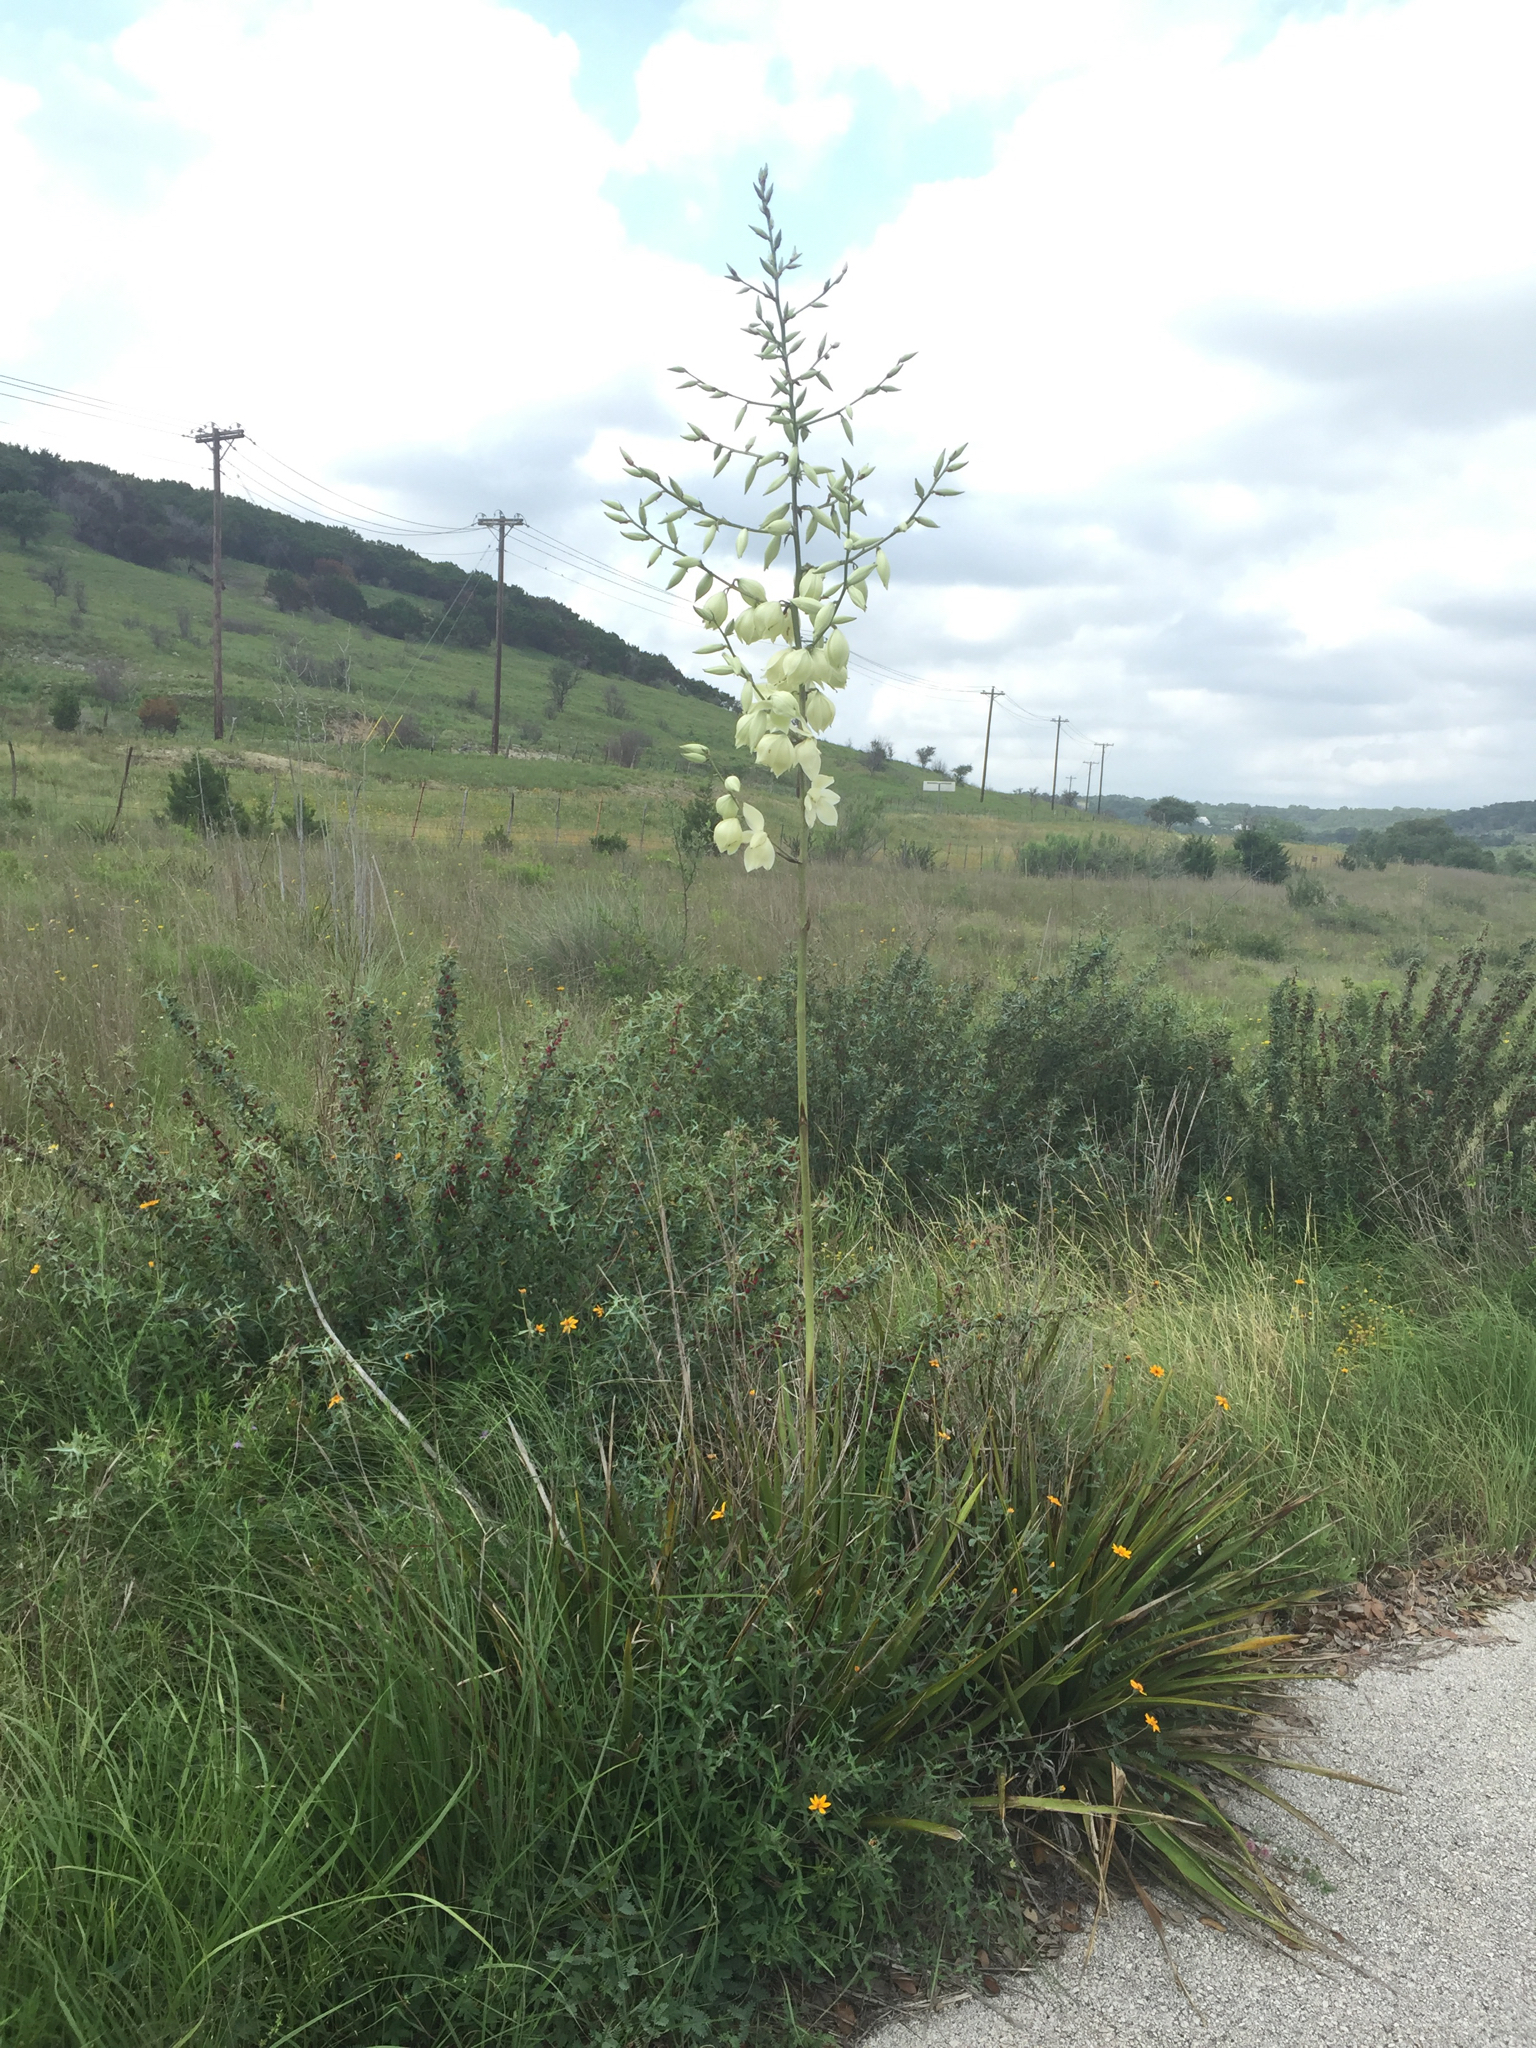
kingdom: Plantae
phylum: Tracheophyta
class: Liliopsida
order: Asparagales
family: Asparagaceae
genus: Yucca
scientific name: Yucca rupicola
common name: Twisted-leaf spanish-dagger
